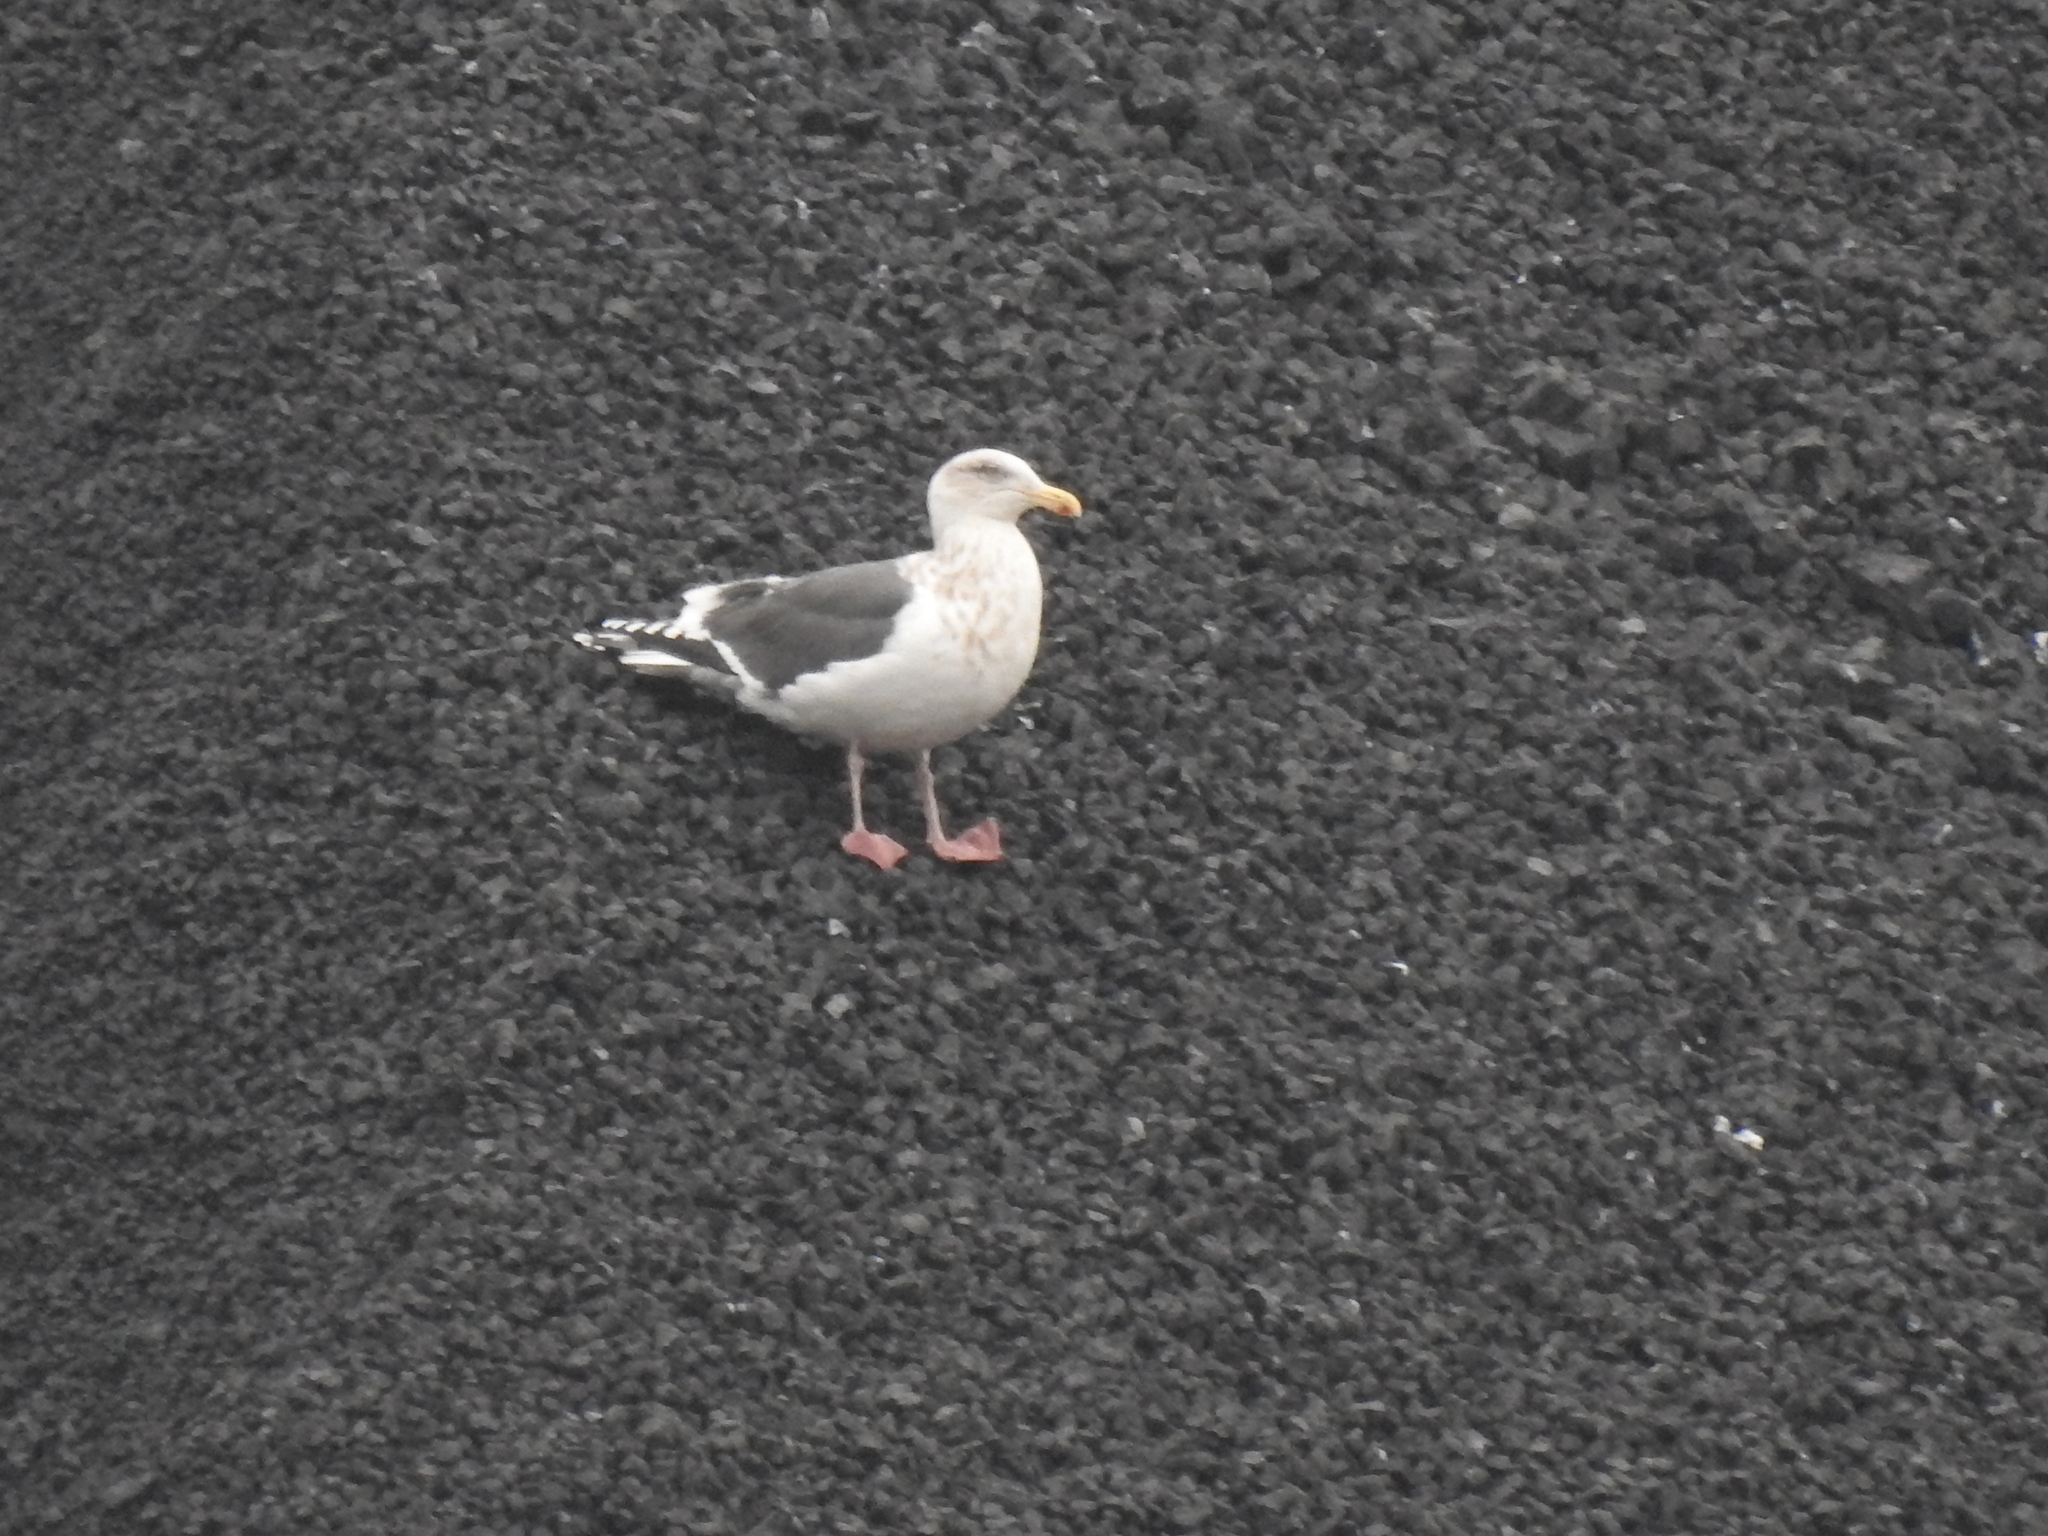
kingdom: Animalia
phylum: Chordata
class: Aves
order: Charadriiformes
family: Laridae
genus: Larus
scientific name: Larus schistisagus
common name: Slaty-backed gull
